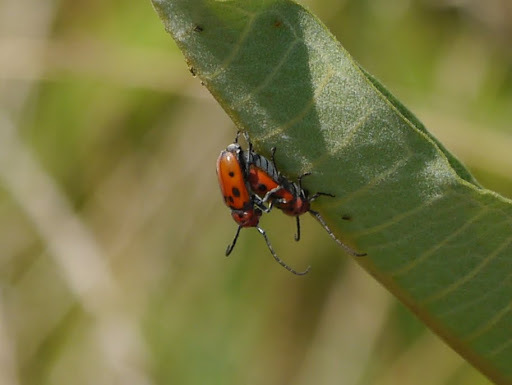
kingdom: Animalia
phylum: Arthropoda
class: Insecta
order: Coleoptera
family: Cerambycidae
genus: Tetraopes
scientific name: Tetraopes tetrophthalmus
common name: Red milkweed beetle
